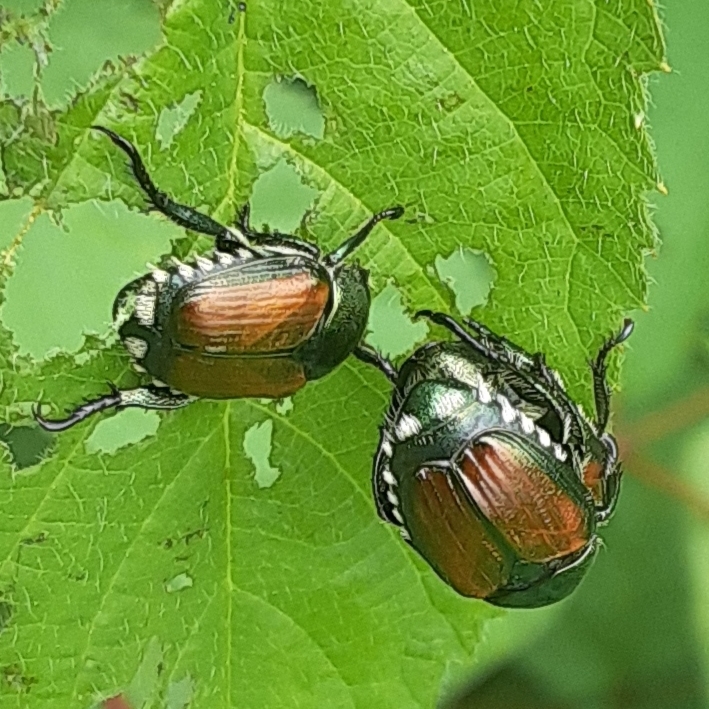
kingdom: Animalia
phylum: Arthropoda
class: Insecta
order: Coleoptera
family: Scarabaeidae
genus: Popillia
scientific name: Popillia japonica
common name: Japanese beetle
